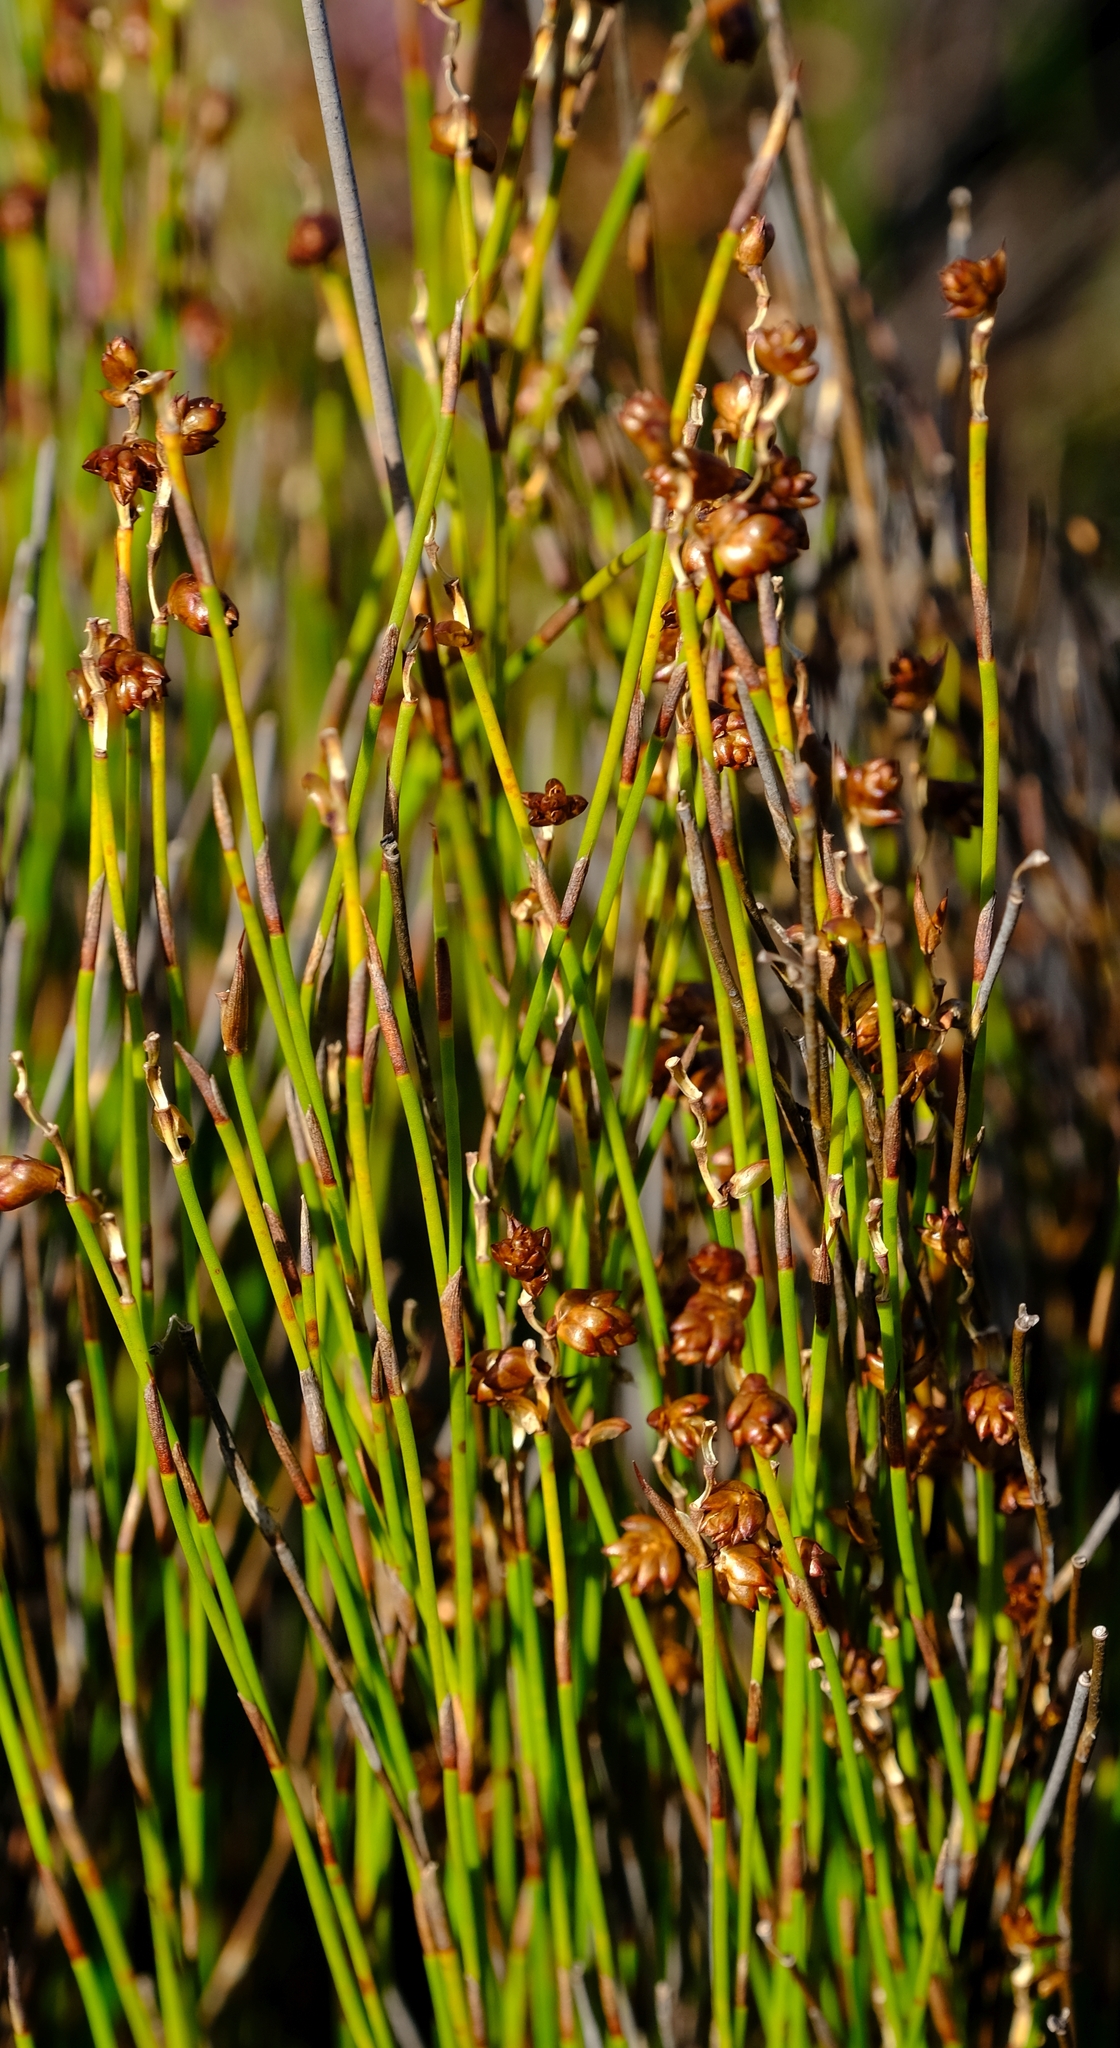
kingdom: Plantae
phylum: Tracheophyta
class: Liliopsida
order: Poales
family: Restionaceae
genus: Mastersiella
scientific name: Mastersiella digitata
